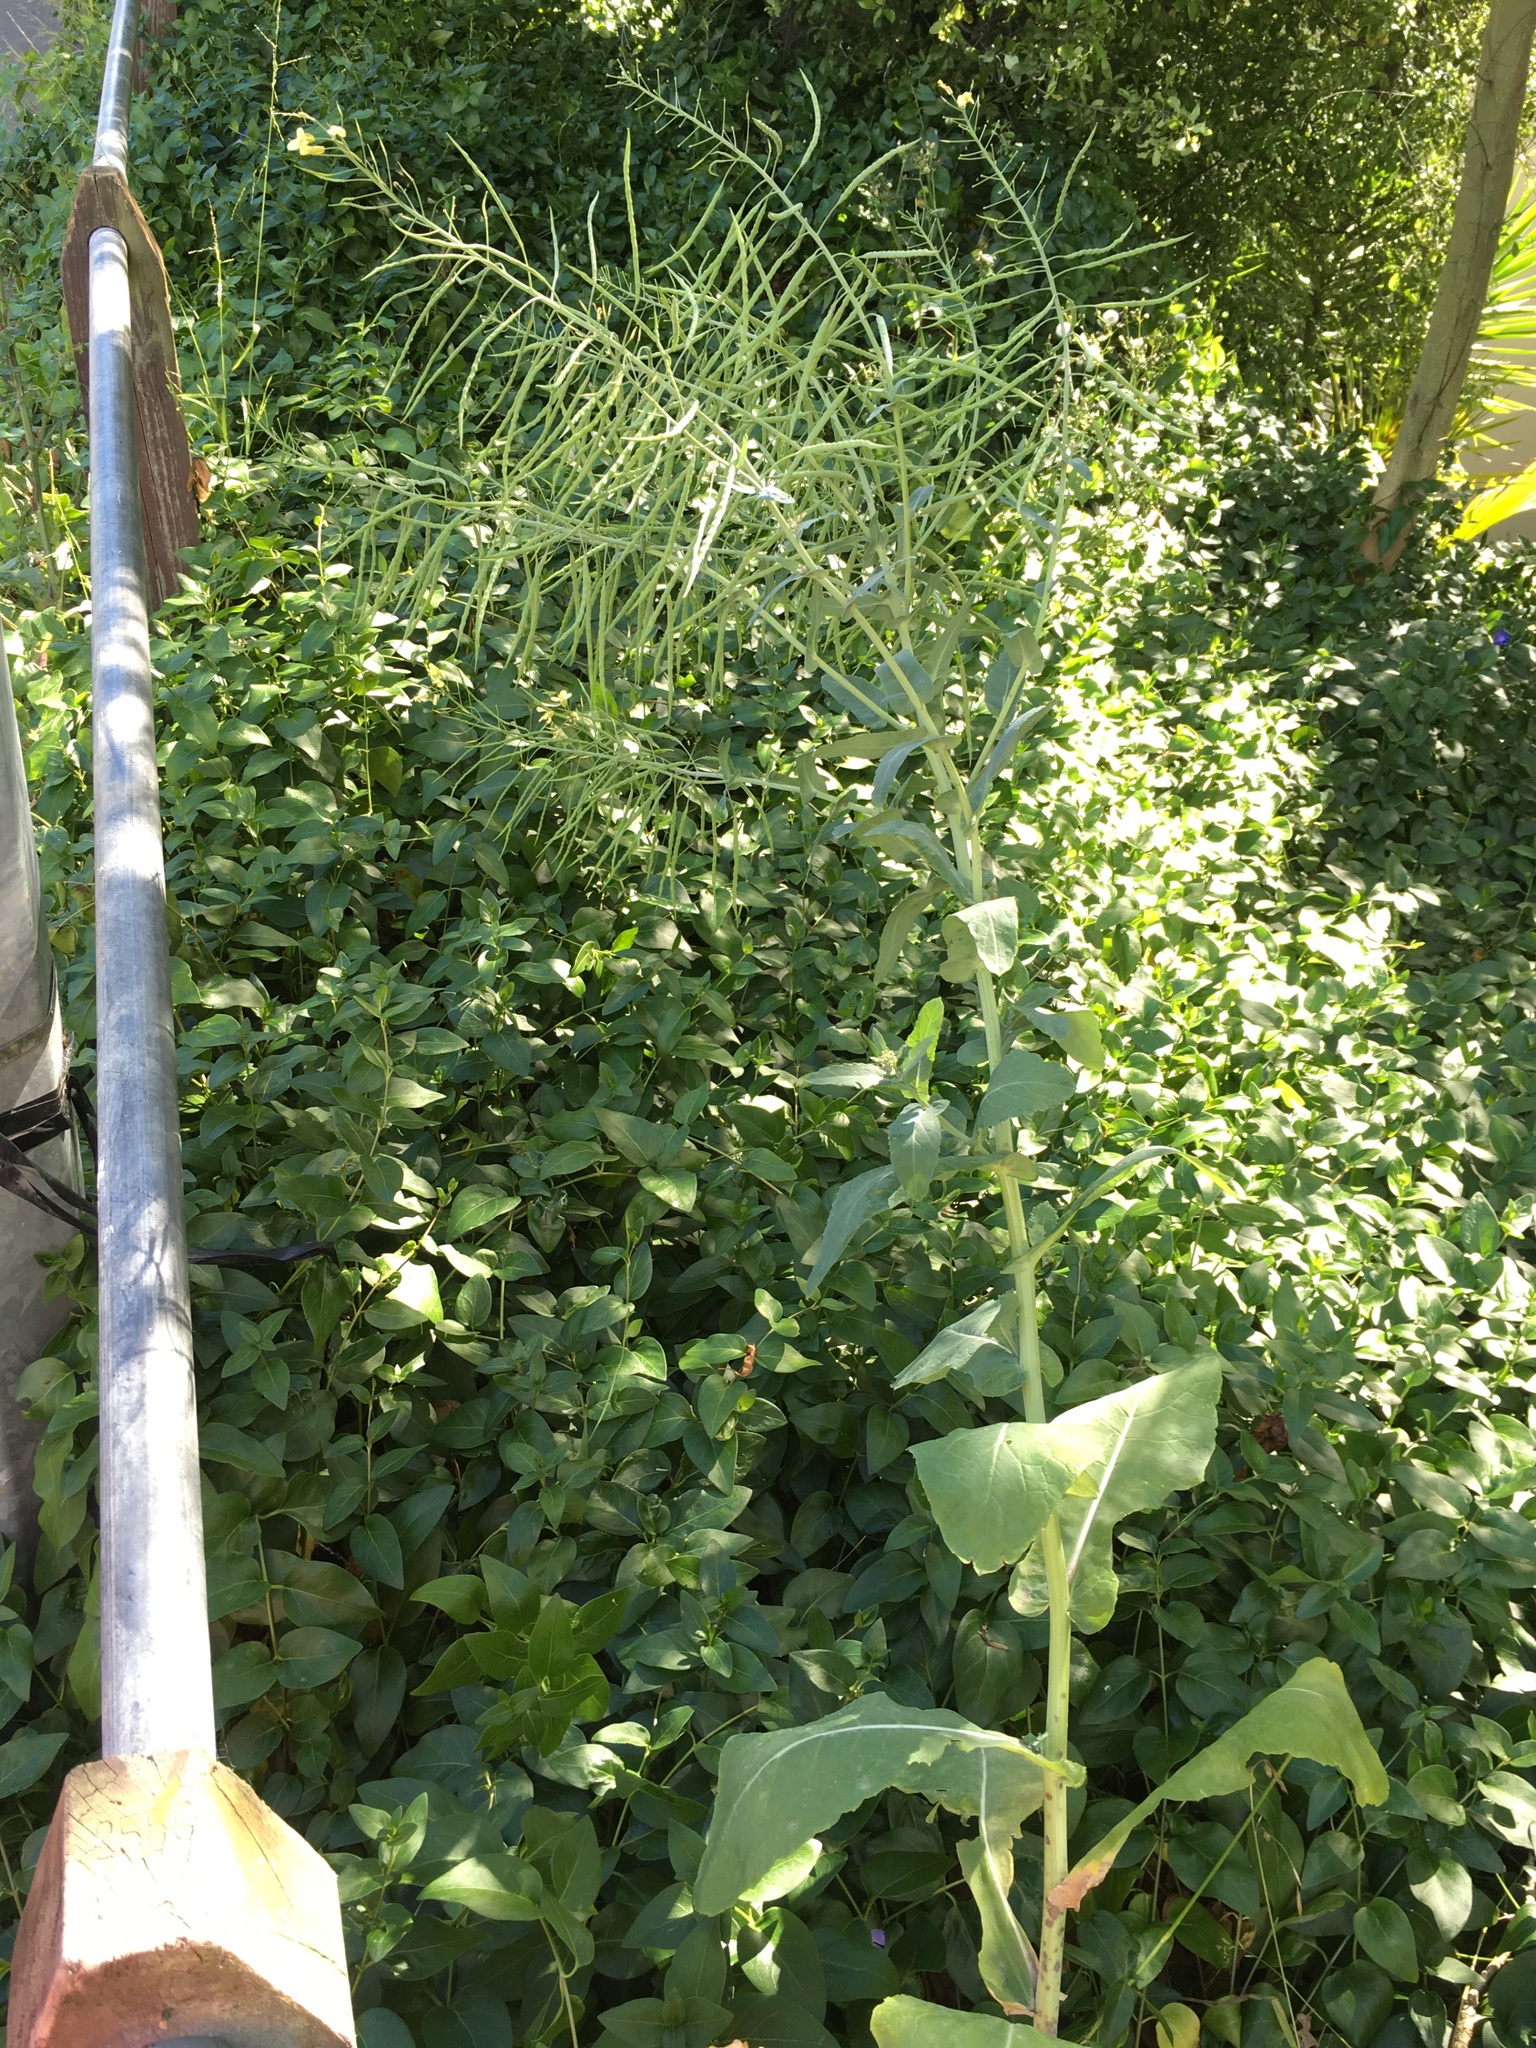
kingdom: Plantae
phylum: Tracheophyta
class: Magnoliopsida
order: Brassicales
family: Brassicaceae
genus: Brassica
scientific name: Brassica oleracea
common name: Cabbage
